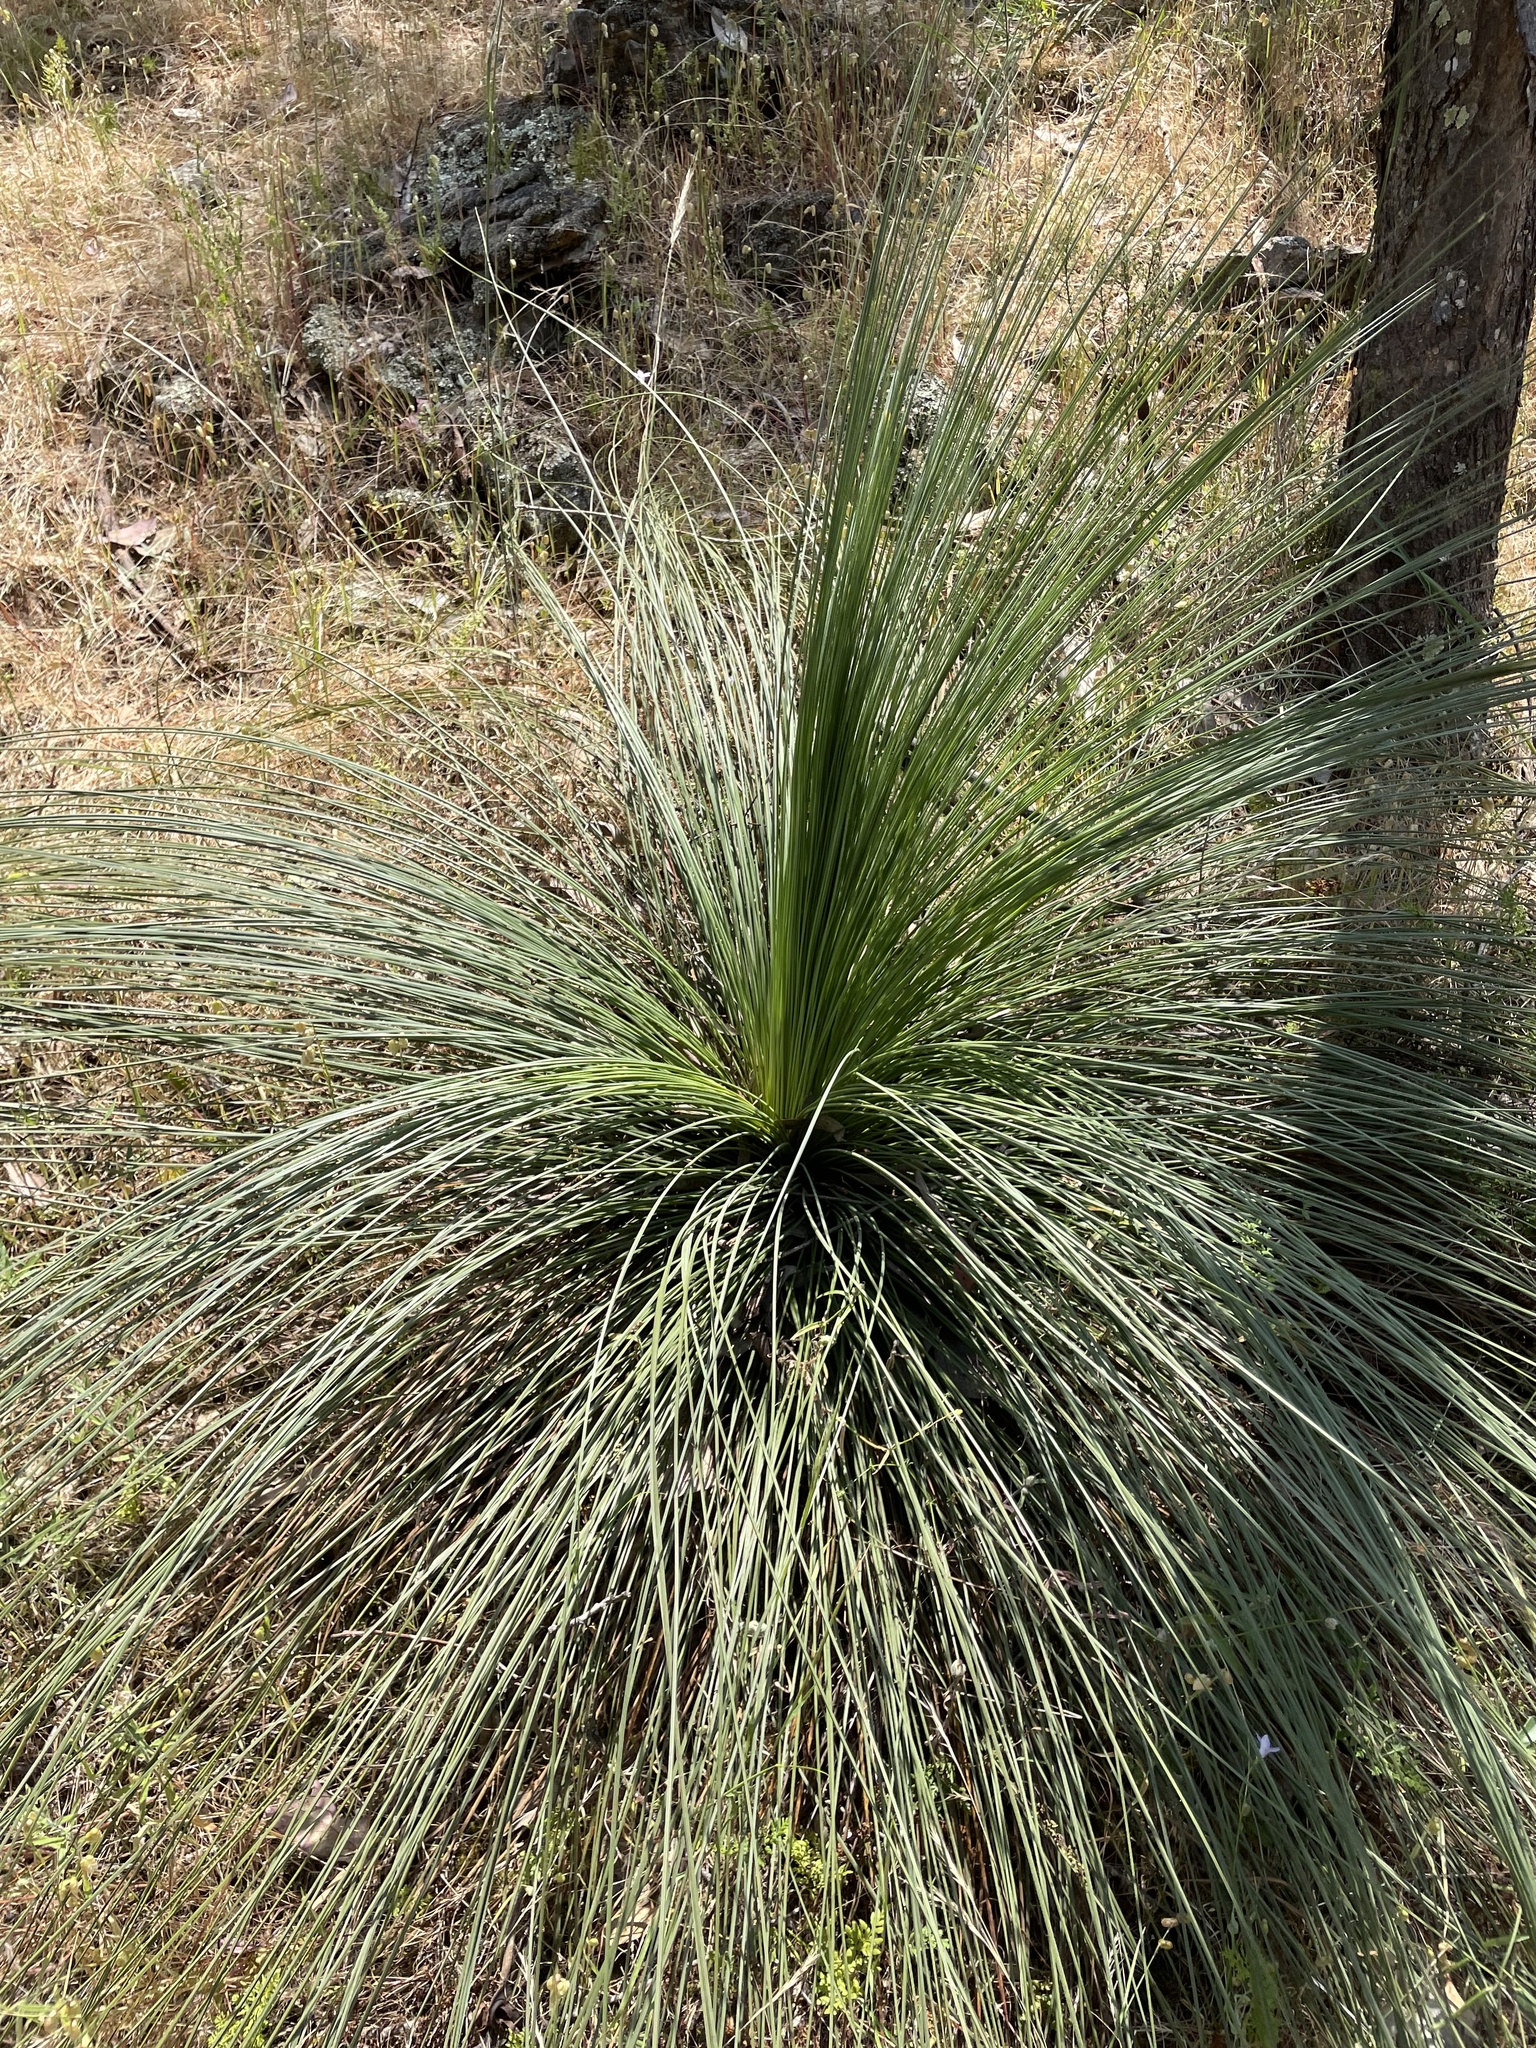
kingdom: Plantae
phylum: Tracheophyta
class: Liliopsida
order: Asparagales
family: Asphodelaceae
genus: Xanthorrhoea
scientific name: Xanthorrhoea glauca
